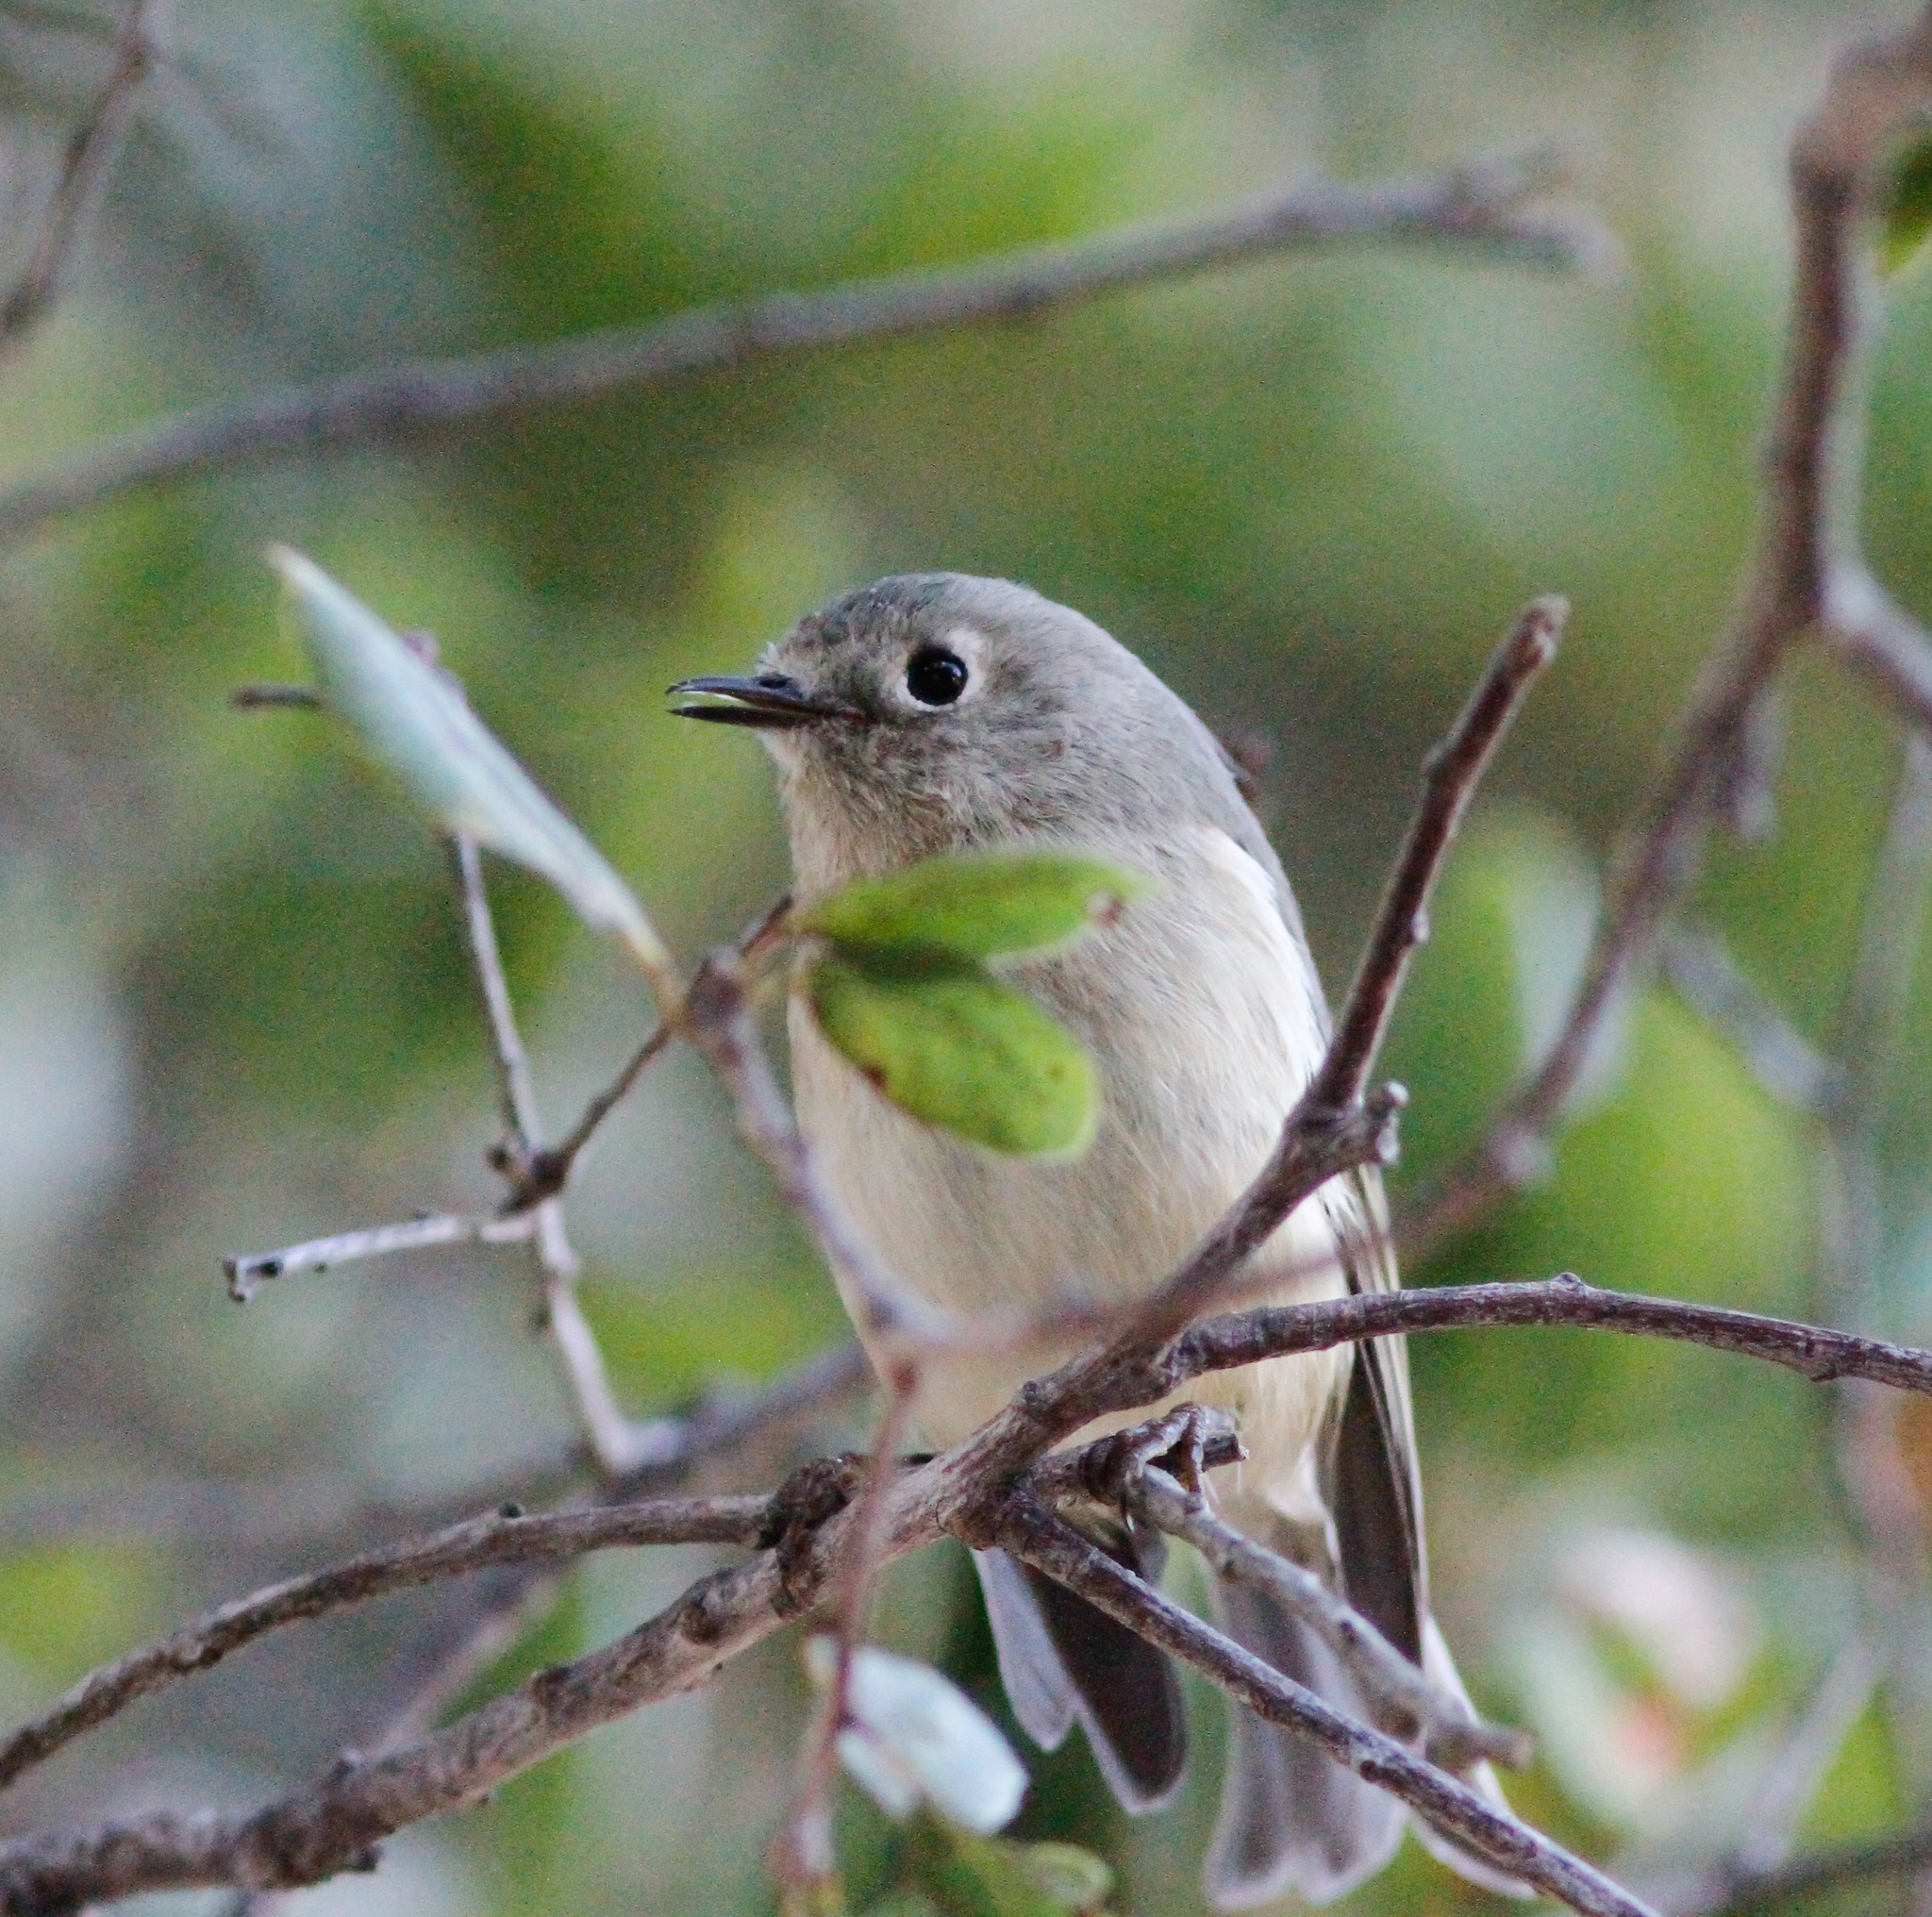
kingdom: Animalia
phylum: Chordata
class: Aves
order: Passeriformes
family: Regulidae
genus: Regulus
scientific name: Regulus calendula
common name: Ruby-crowned kinglet
